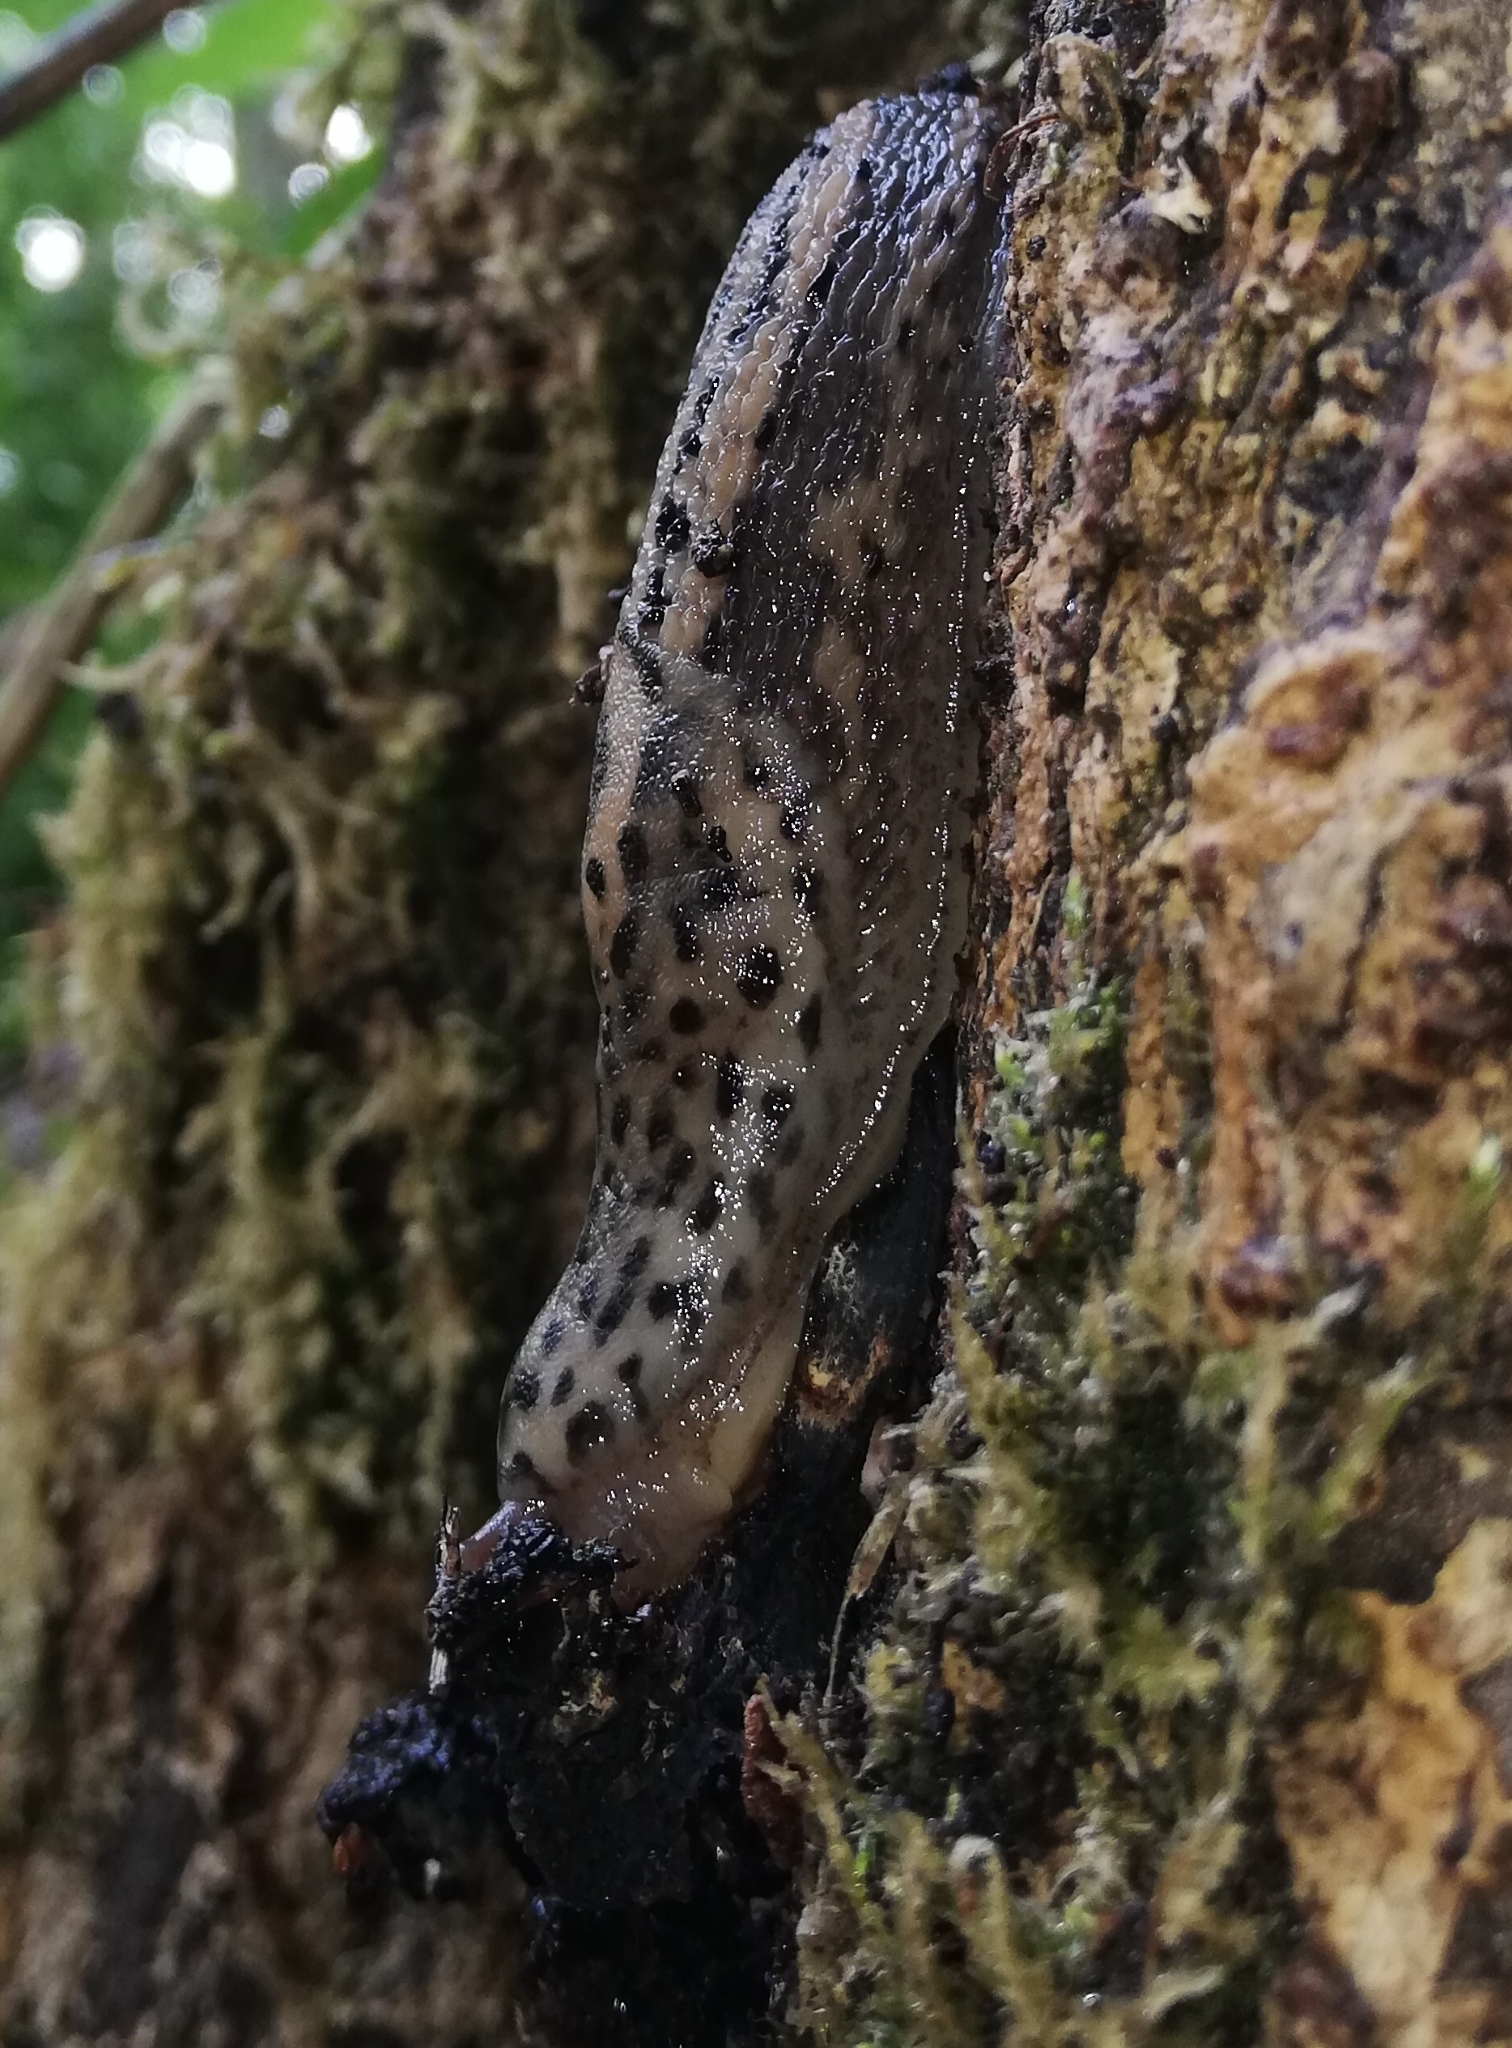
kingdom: Animalia
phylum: Mollusca
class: Gastropoda
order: Stylommatophora
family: Limacidae
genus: Limax
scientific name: Limax maximus
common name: Great grey slug
